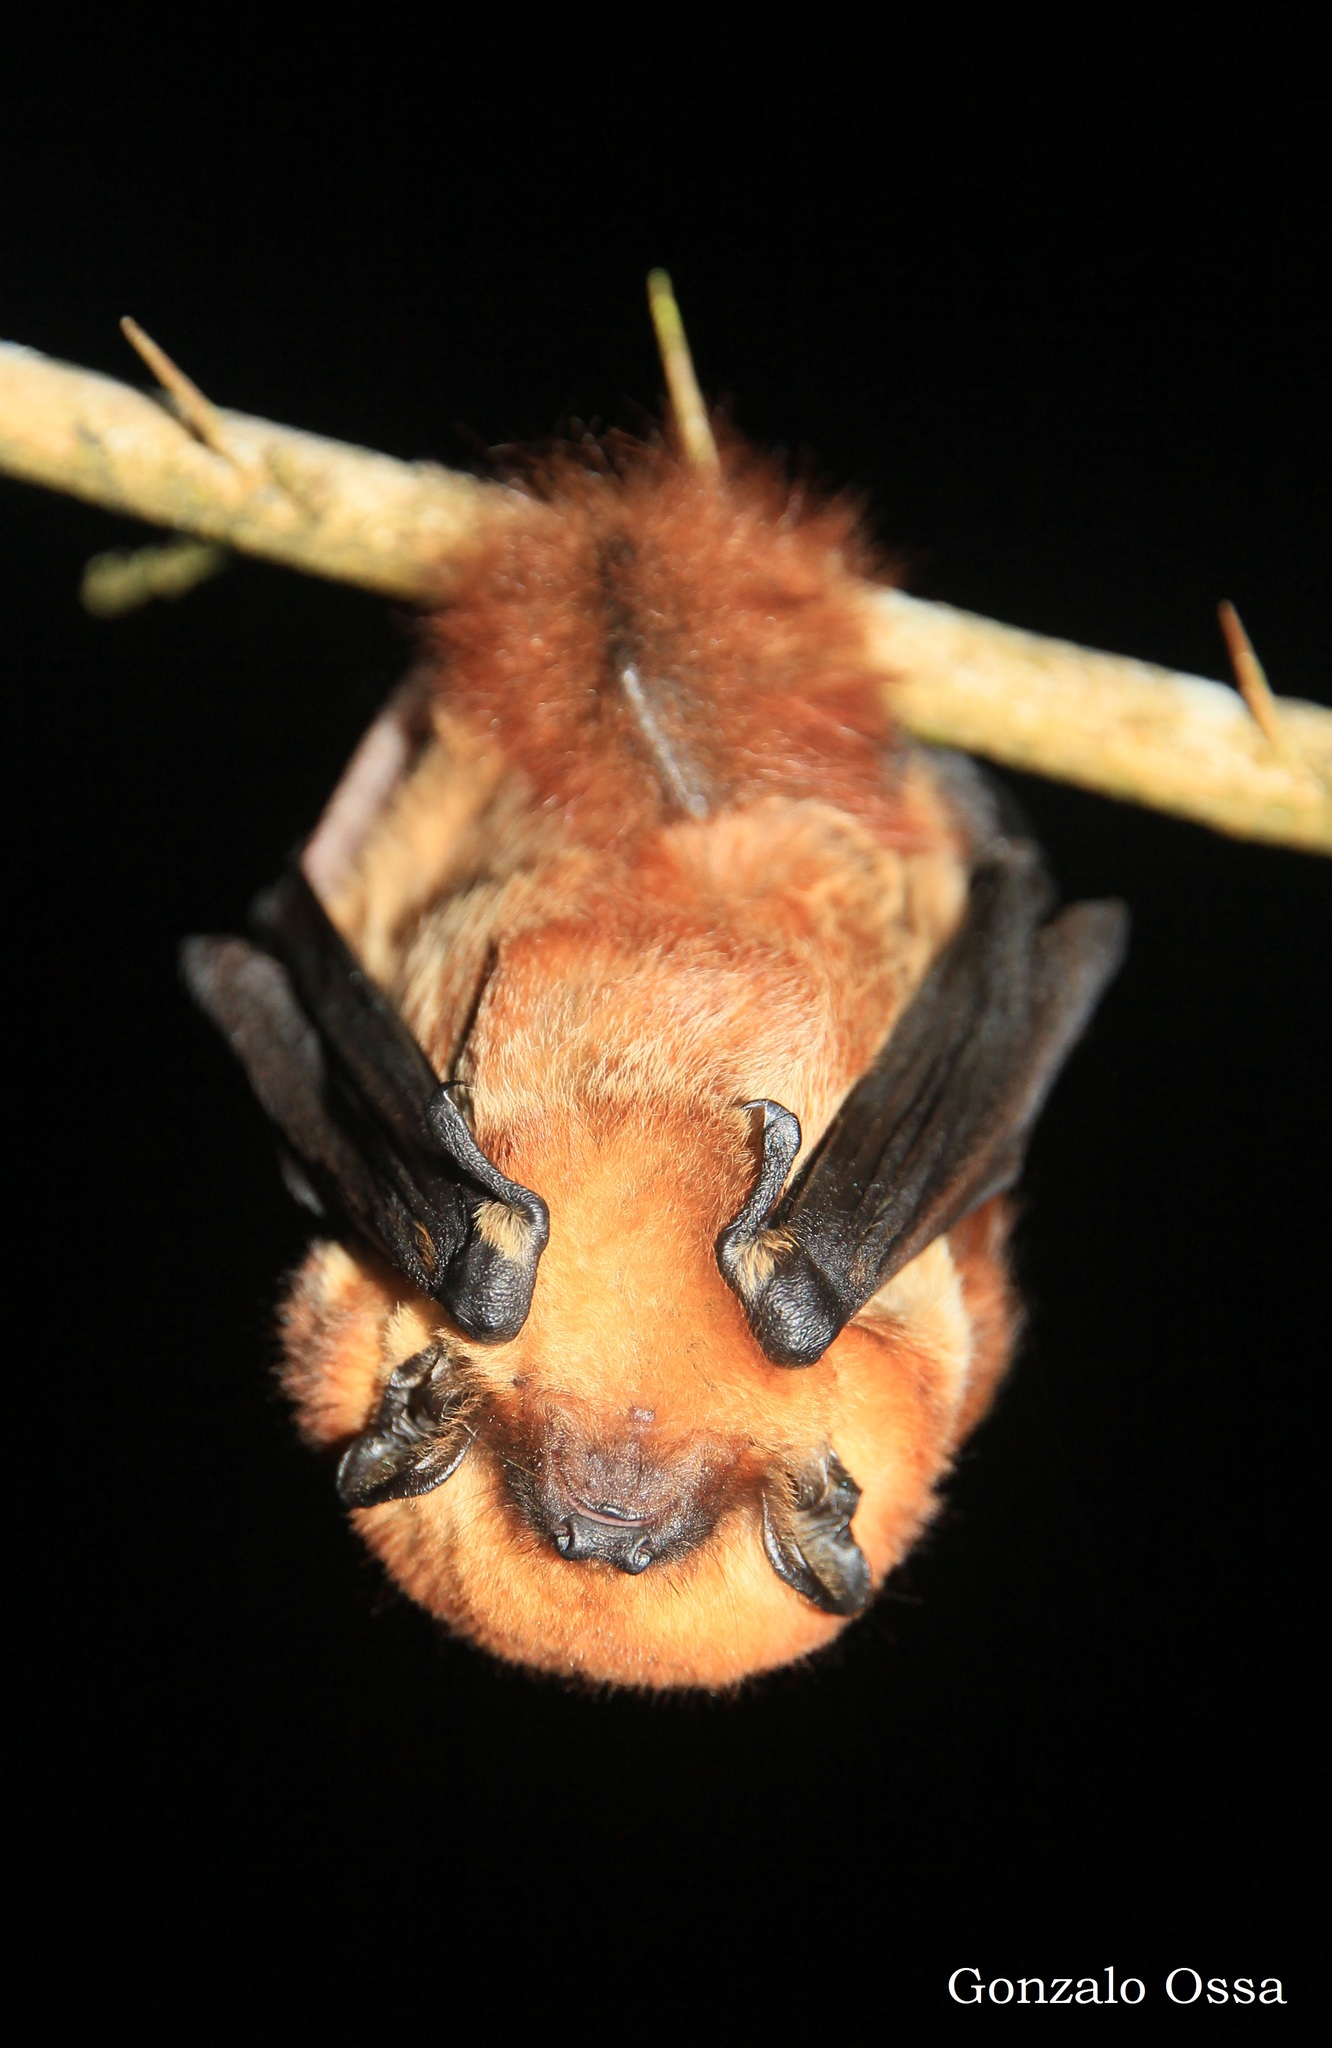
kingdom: Animalia
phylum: Chordata
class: Mammalia
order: Chiroptera
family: Vespertilionidae
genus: Lasiurus
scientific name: Lasiurus varius
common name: Cinnamon red bat
